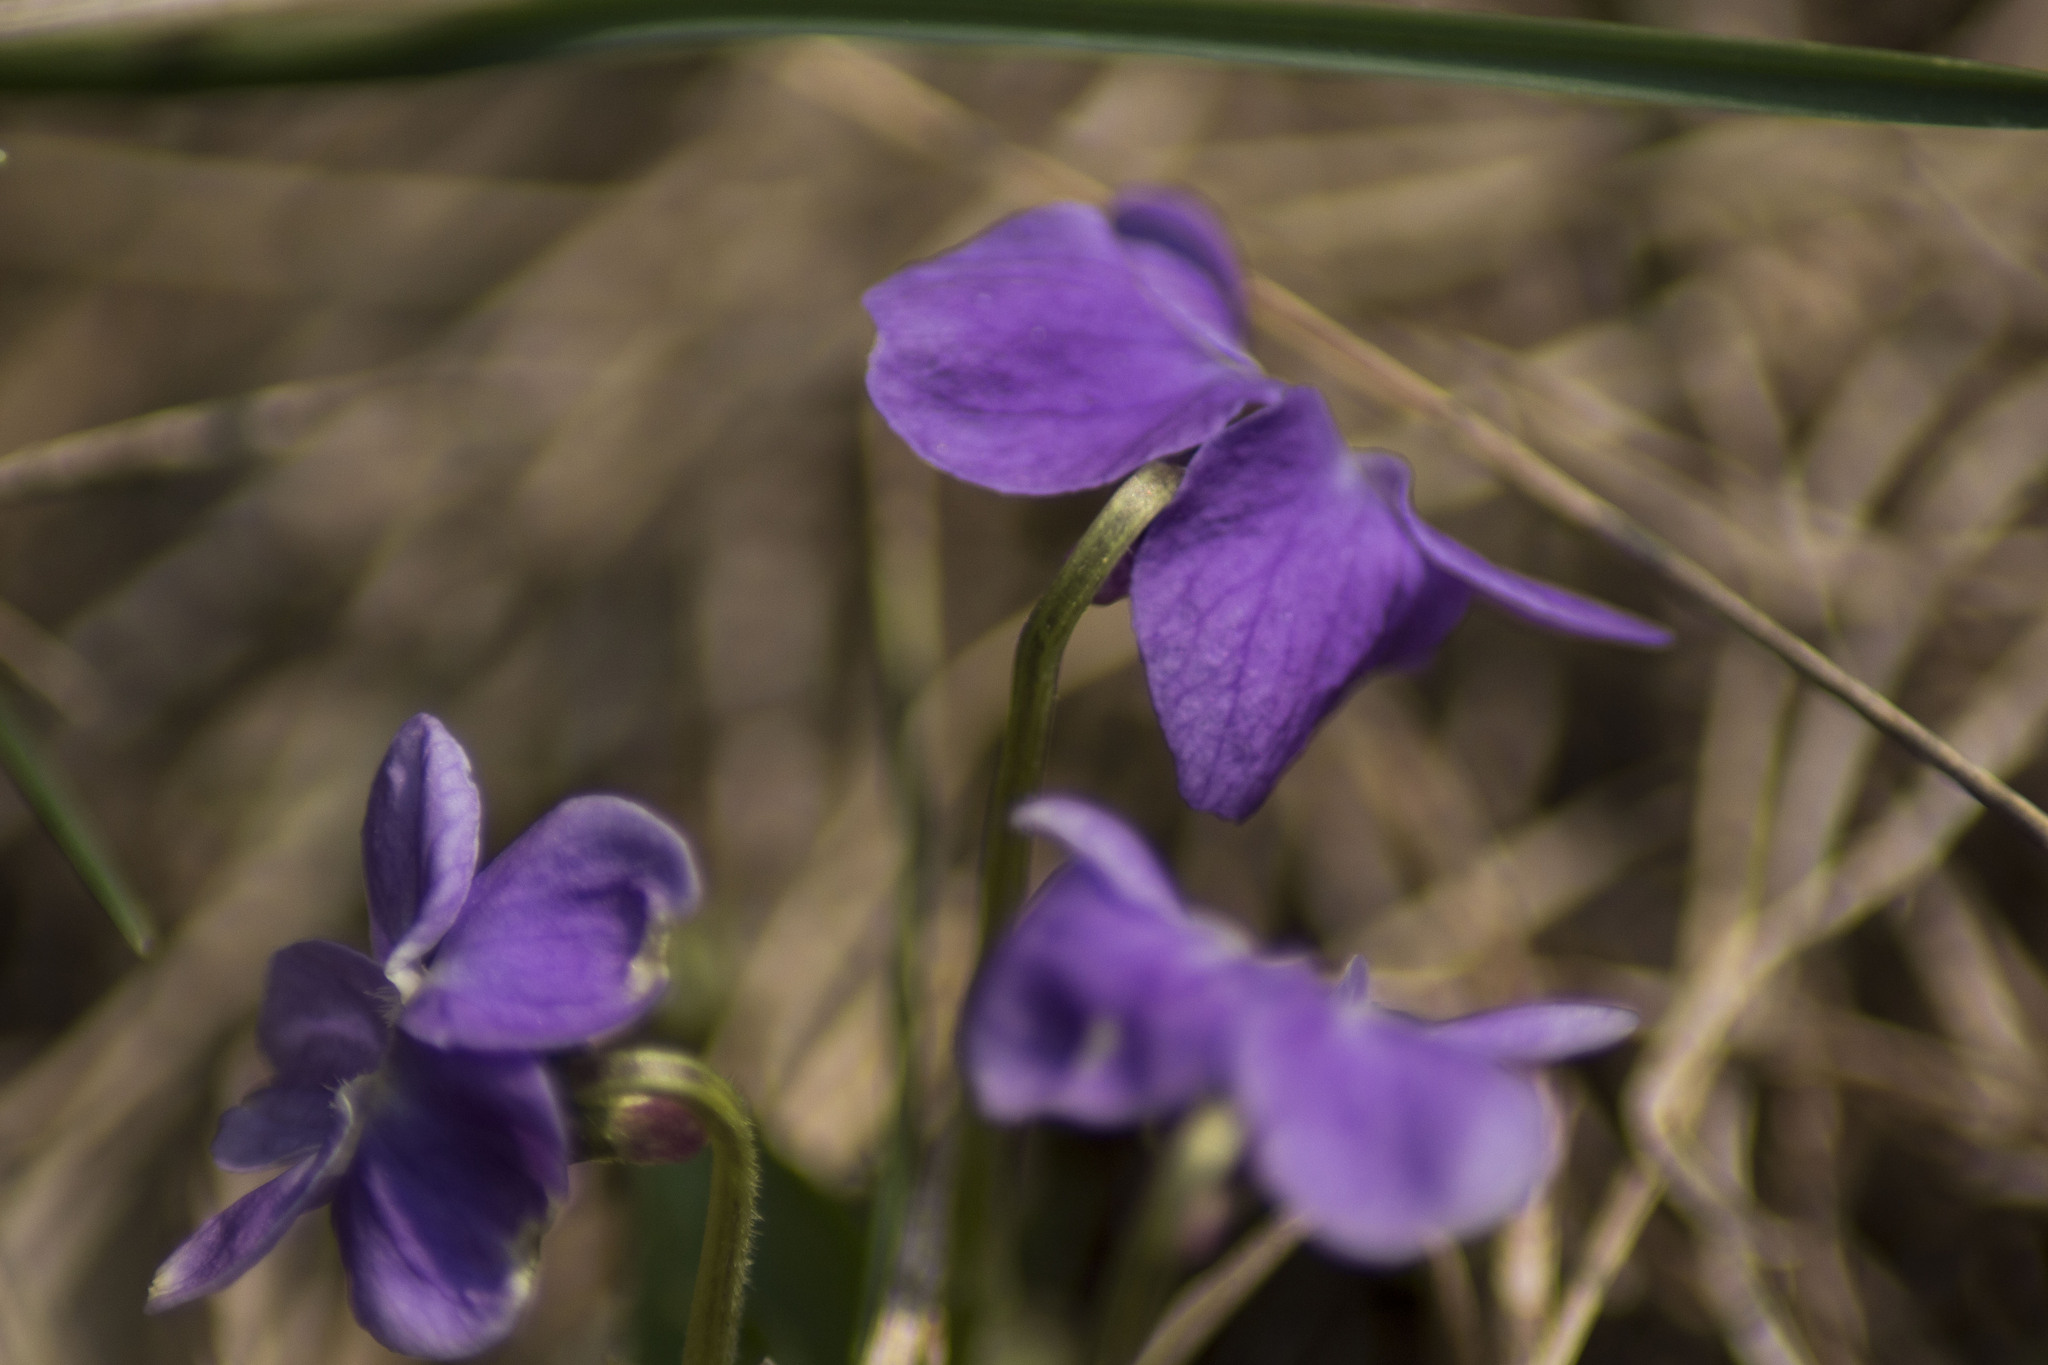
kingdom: Plantae
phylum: Tracheophyta
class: Magnoliopsida
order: Malpighiales
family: Violaceae
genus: Viola
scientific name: Viola hirta
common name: Hairy violet
